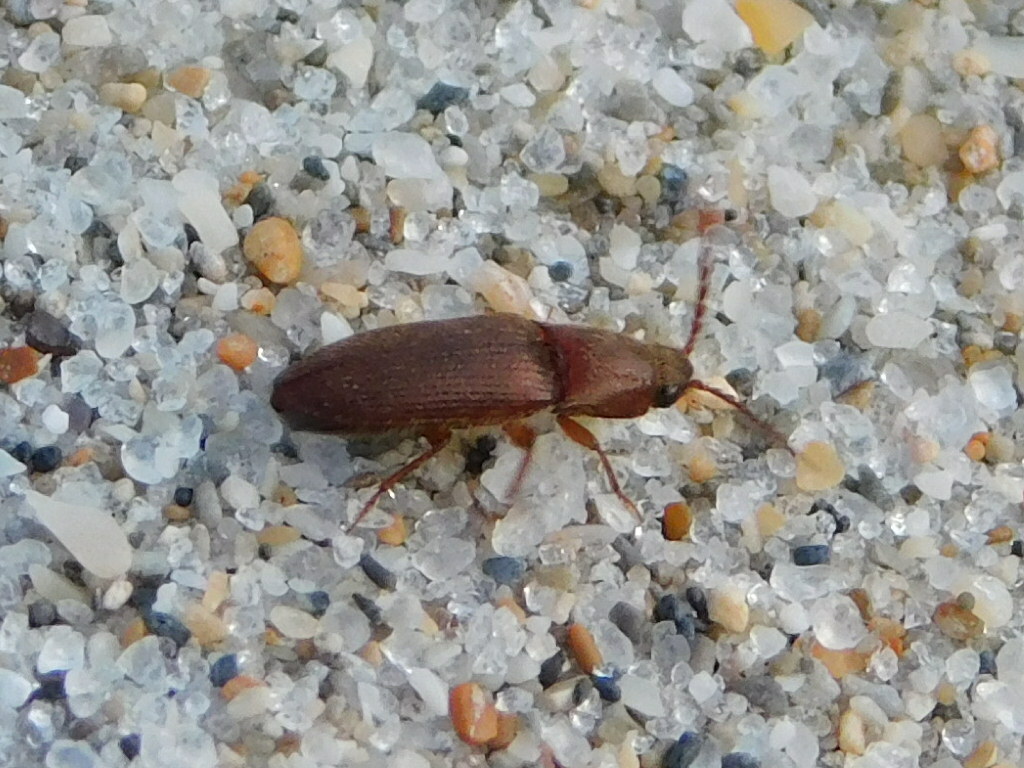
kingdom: Animalia
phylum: Arthropoda
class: Insecta
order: Coleoptera
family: Elateridae
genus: Dipropus
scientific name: Dipropus
